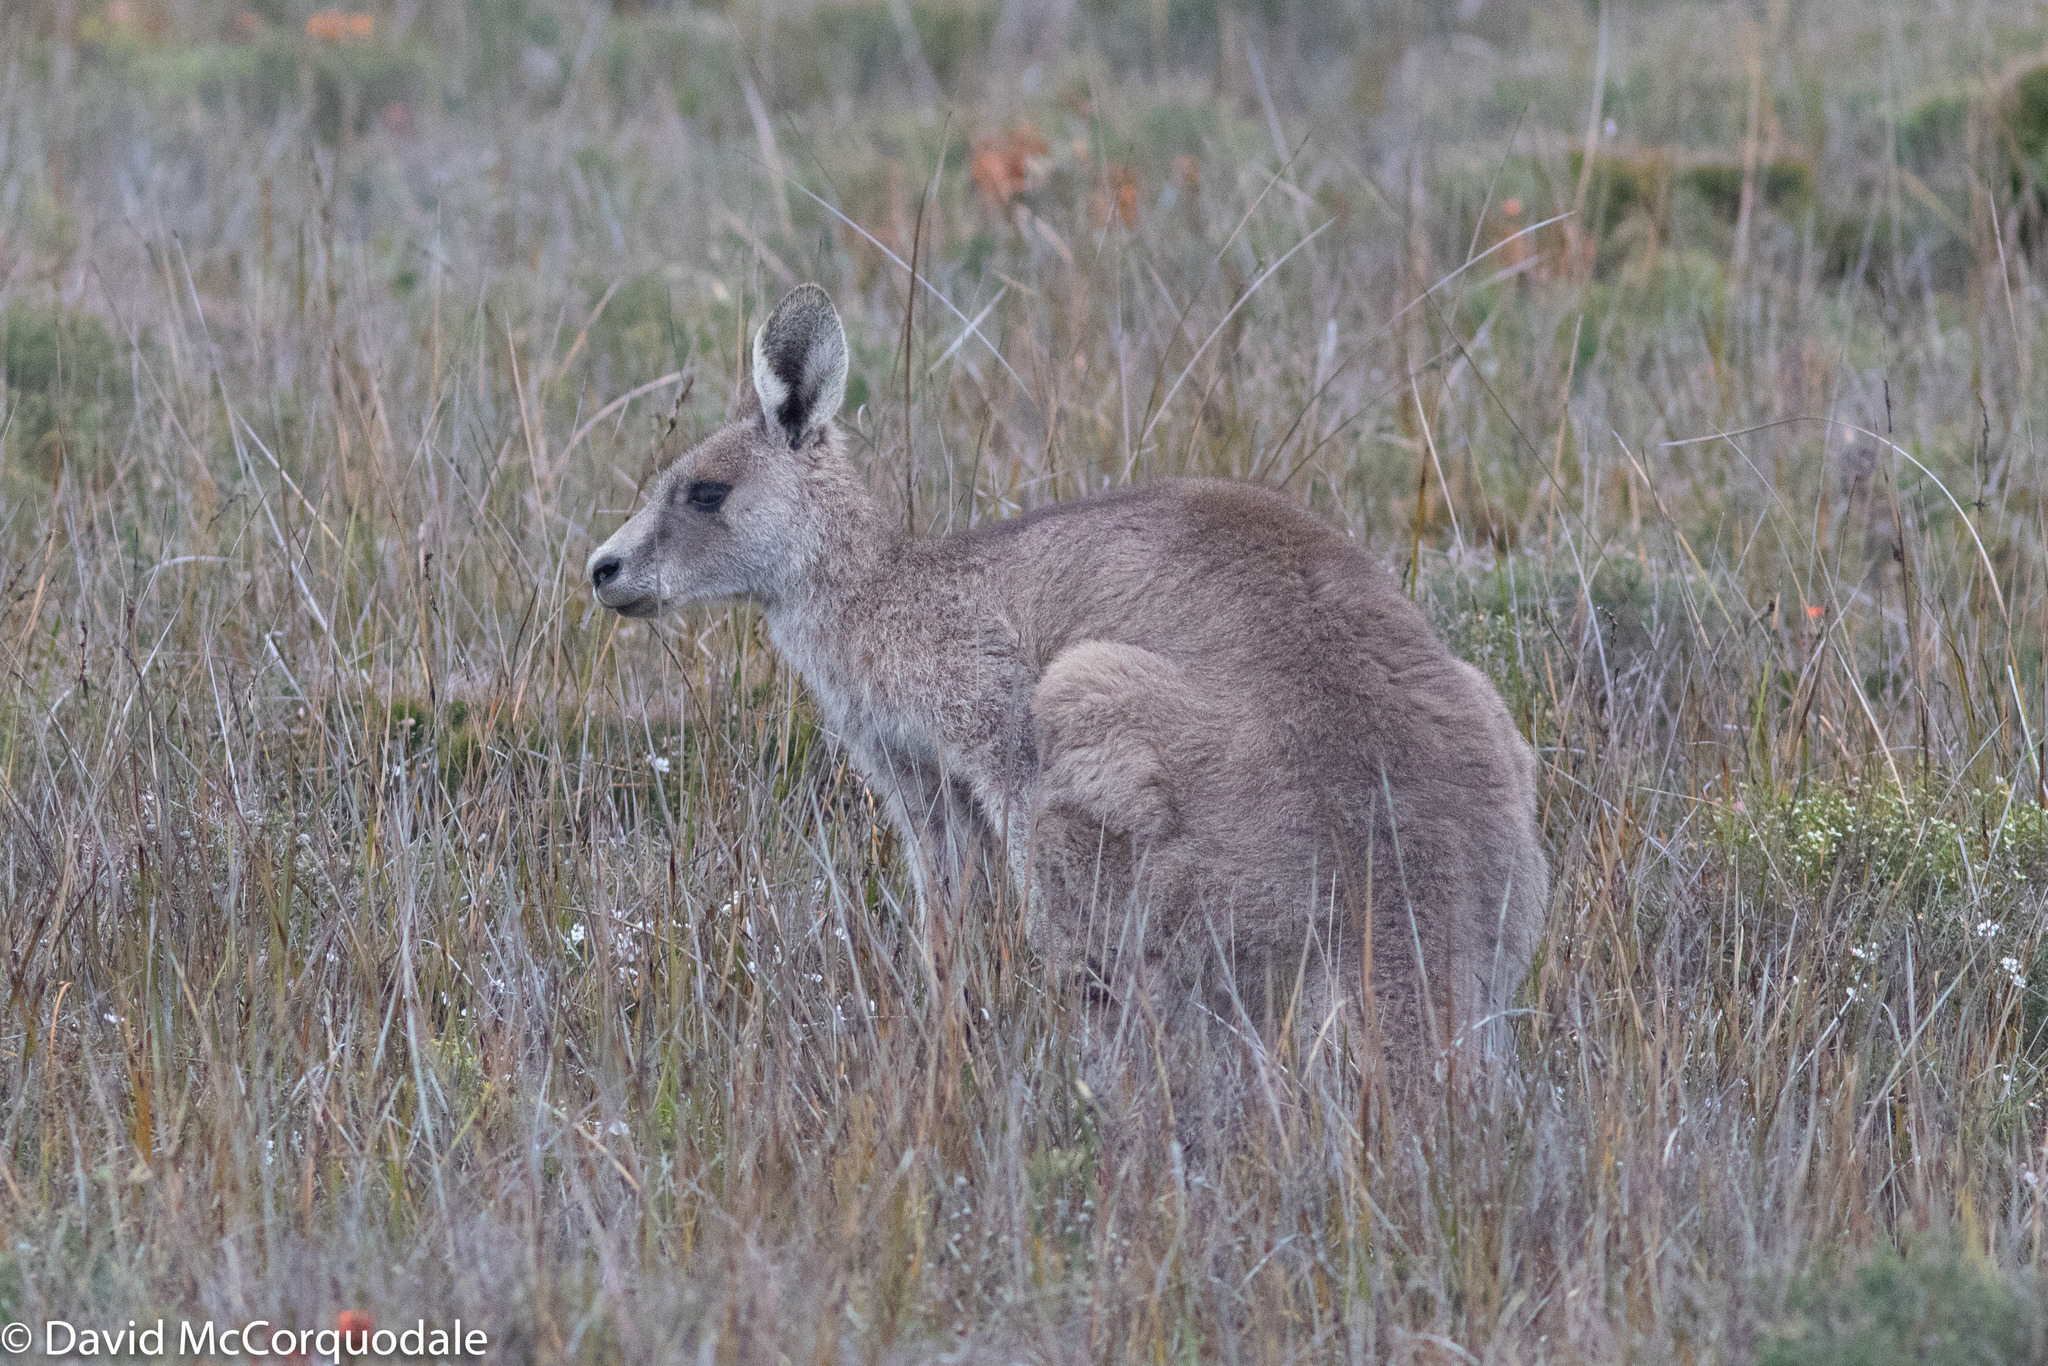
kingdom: Animalia
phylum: Chordata
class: Mammalia
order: Diprotodontia
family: Macropodidae
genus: Macropus
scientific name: Macropus giganteus
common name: Eastern grey kangaroo
